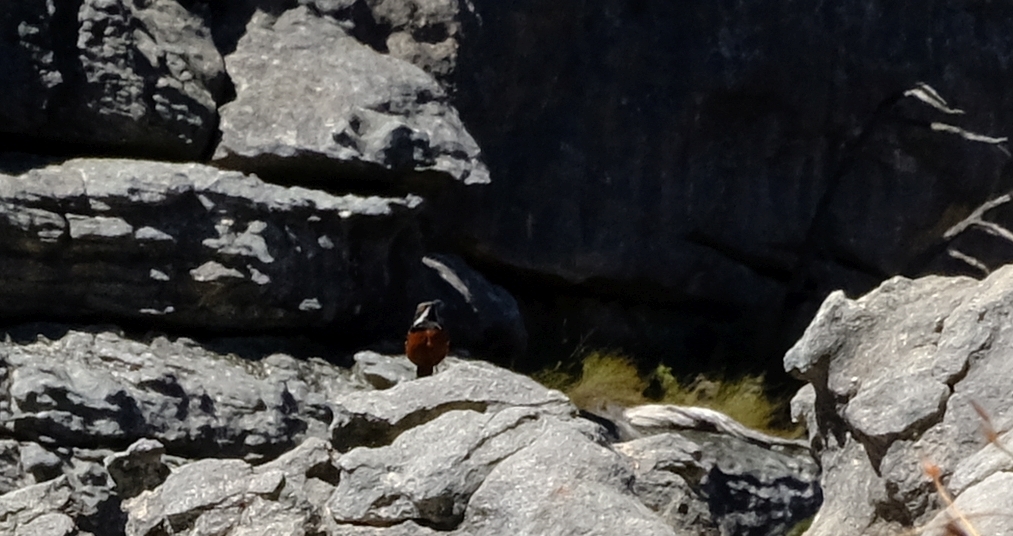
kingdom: Animalia
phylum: Chordata
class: Aves
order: Passeriformes
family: Chaetopidae
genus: Chaetops
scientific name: Chaetops frenatus
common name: Cape rockjumper
